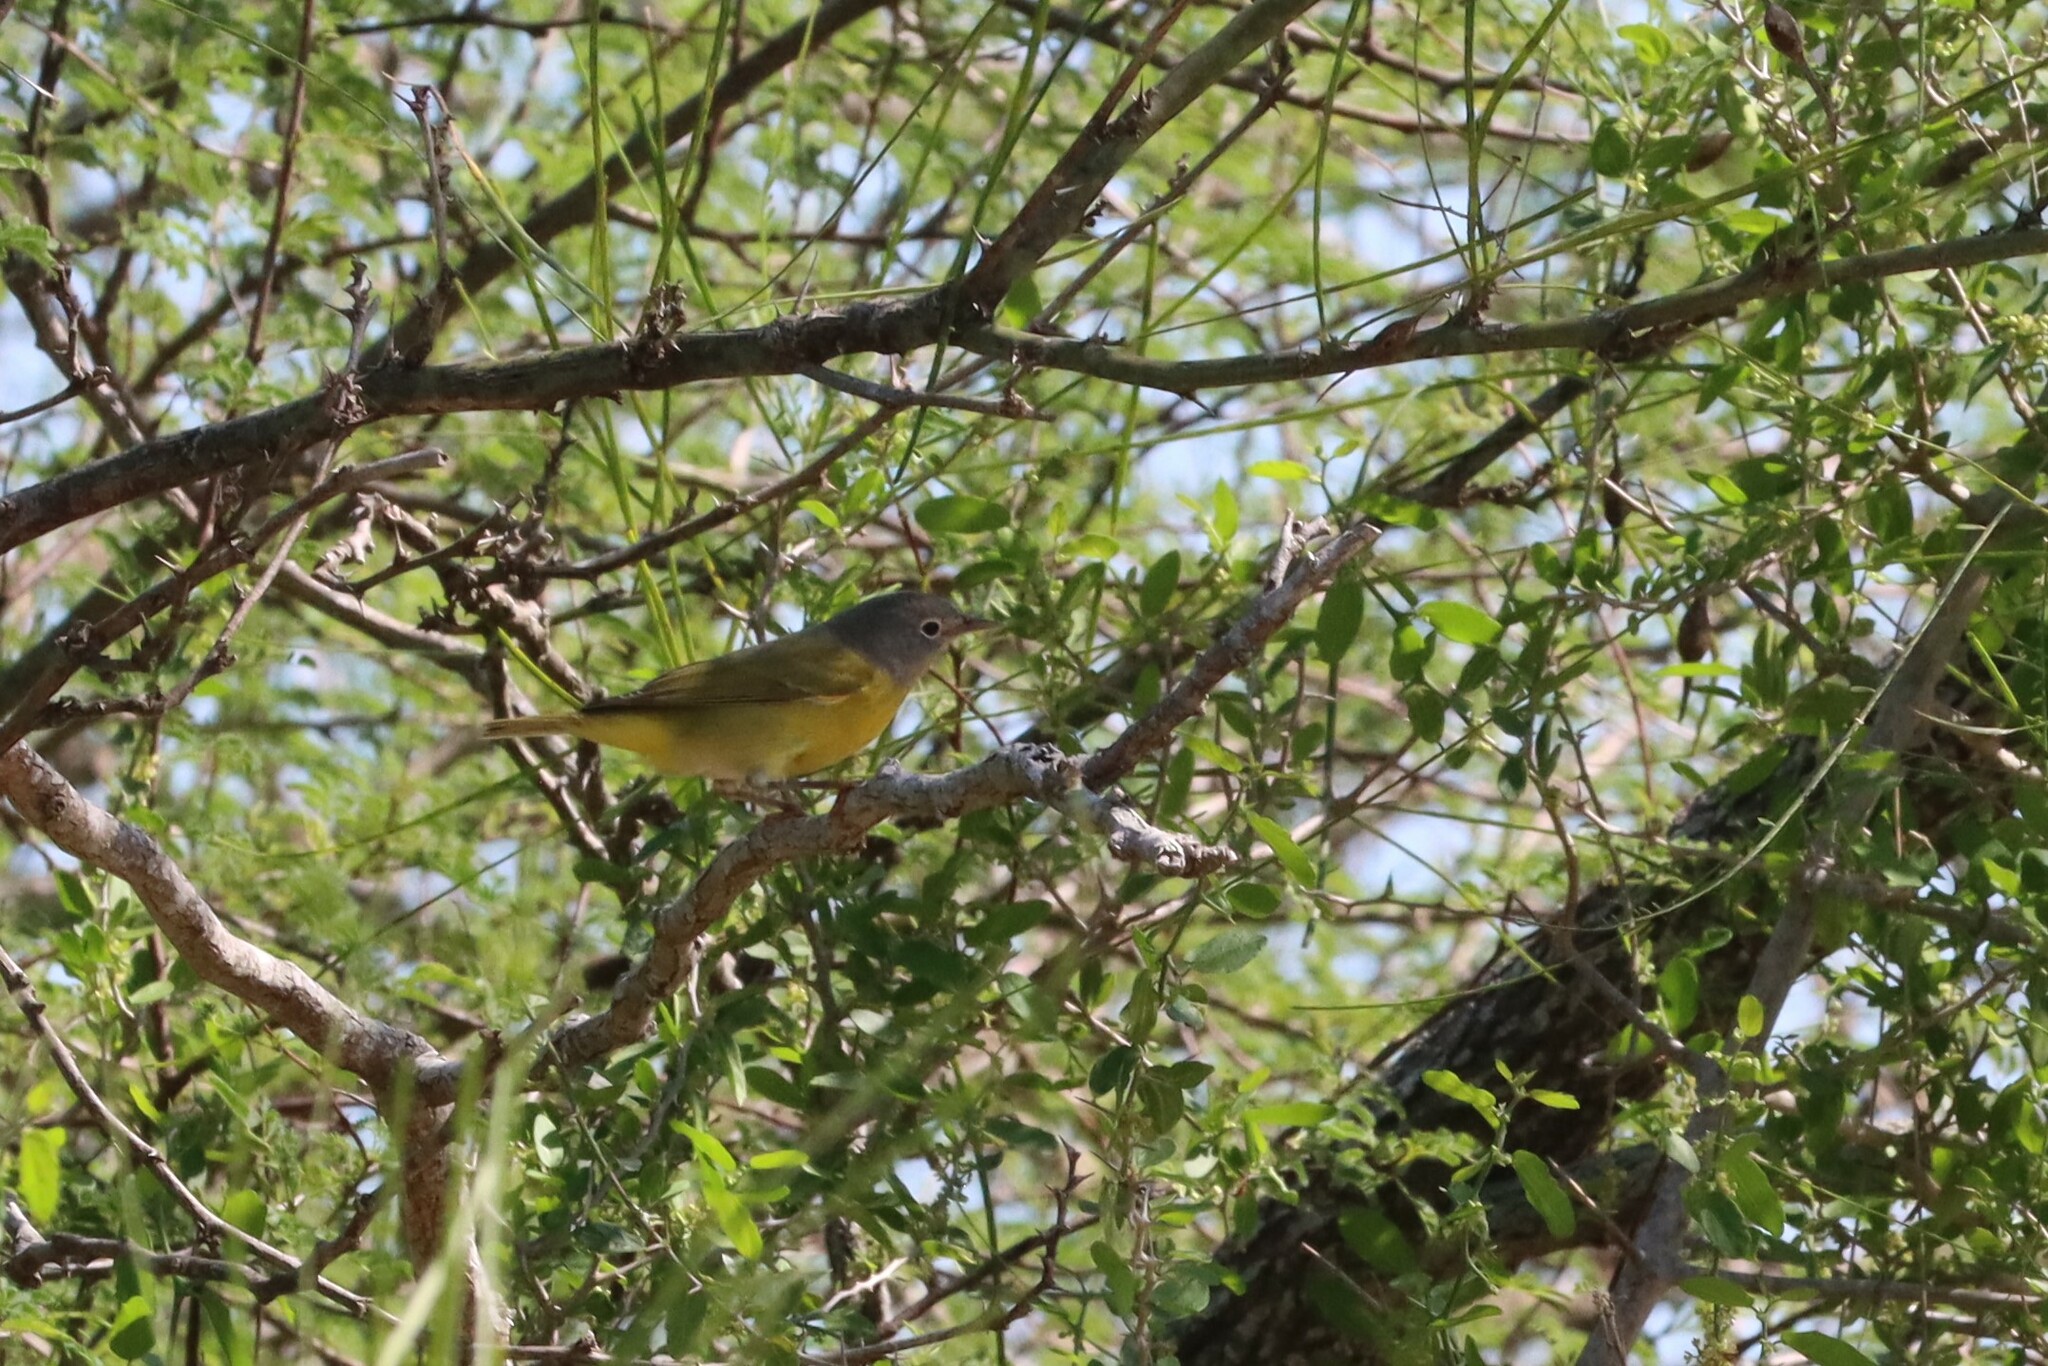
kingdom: Animalia
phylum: Chordata
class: Aves
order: Passeriformes
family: Parulidae
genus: Leiothlypis
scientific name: Leiothlypis ruficapilla
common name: Nashville warbler
